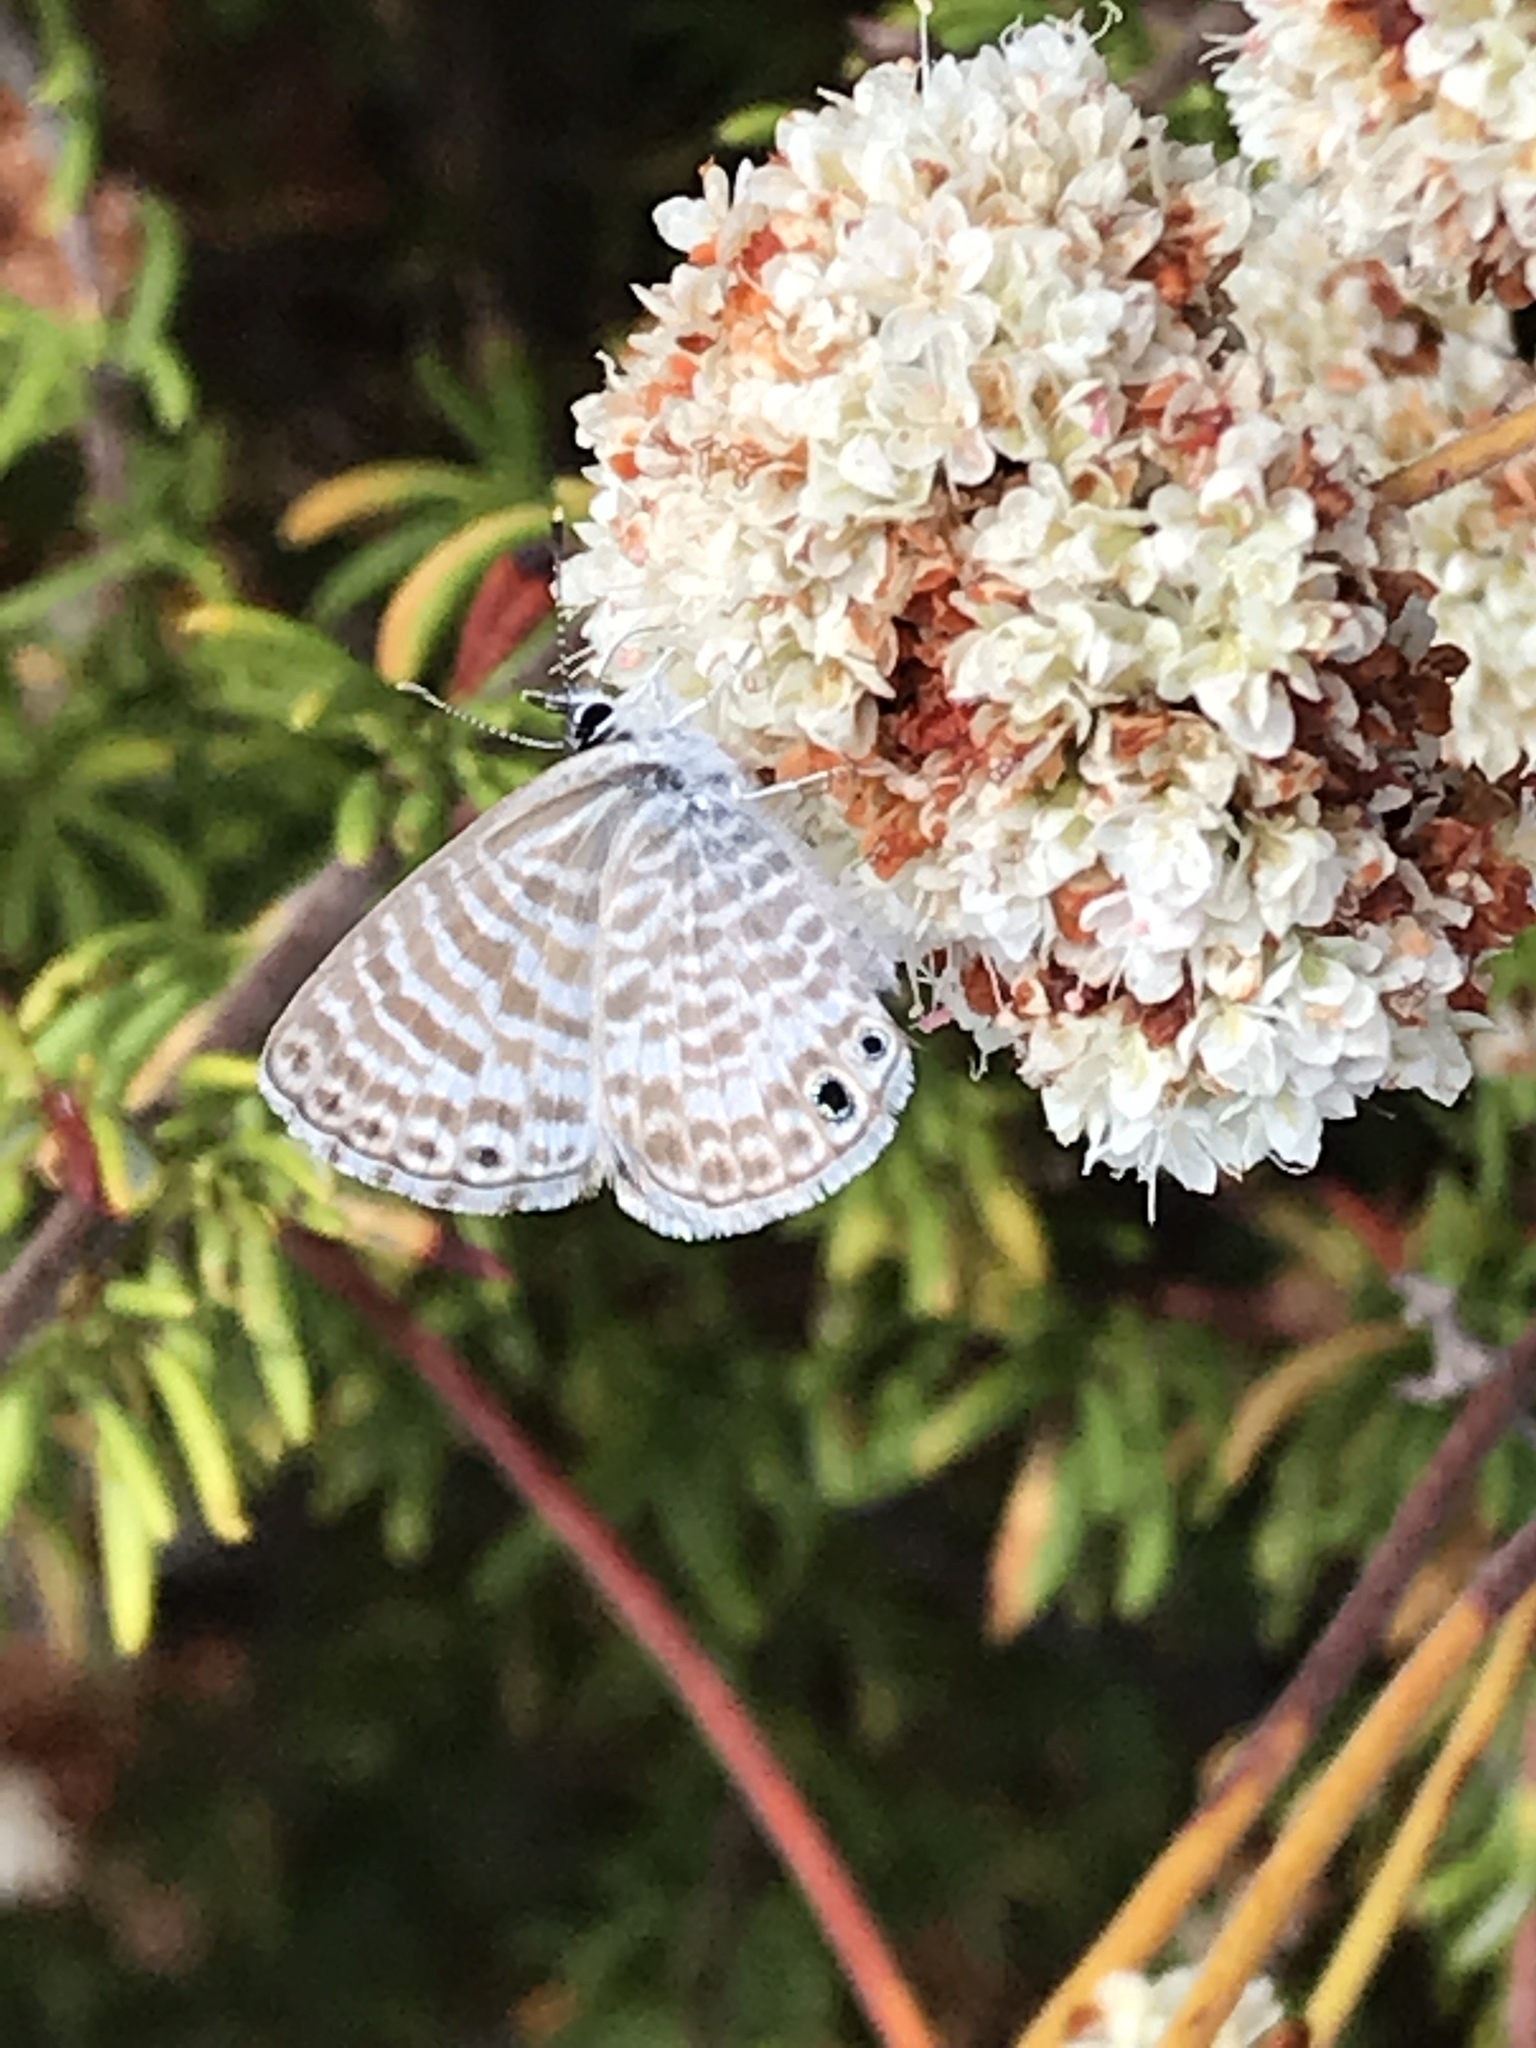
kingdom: Animalia
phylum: Arthropoda
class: Insecta
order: Lepidoptera
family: Lycaenidae
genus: Leptotes
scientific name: Leptotes marina
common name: Marine blue
